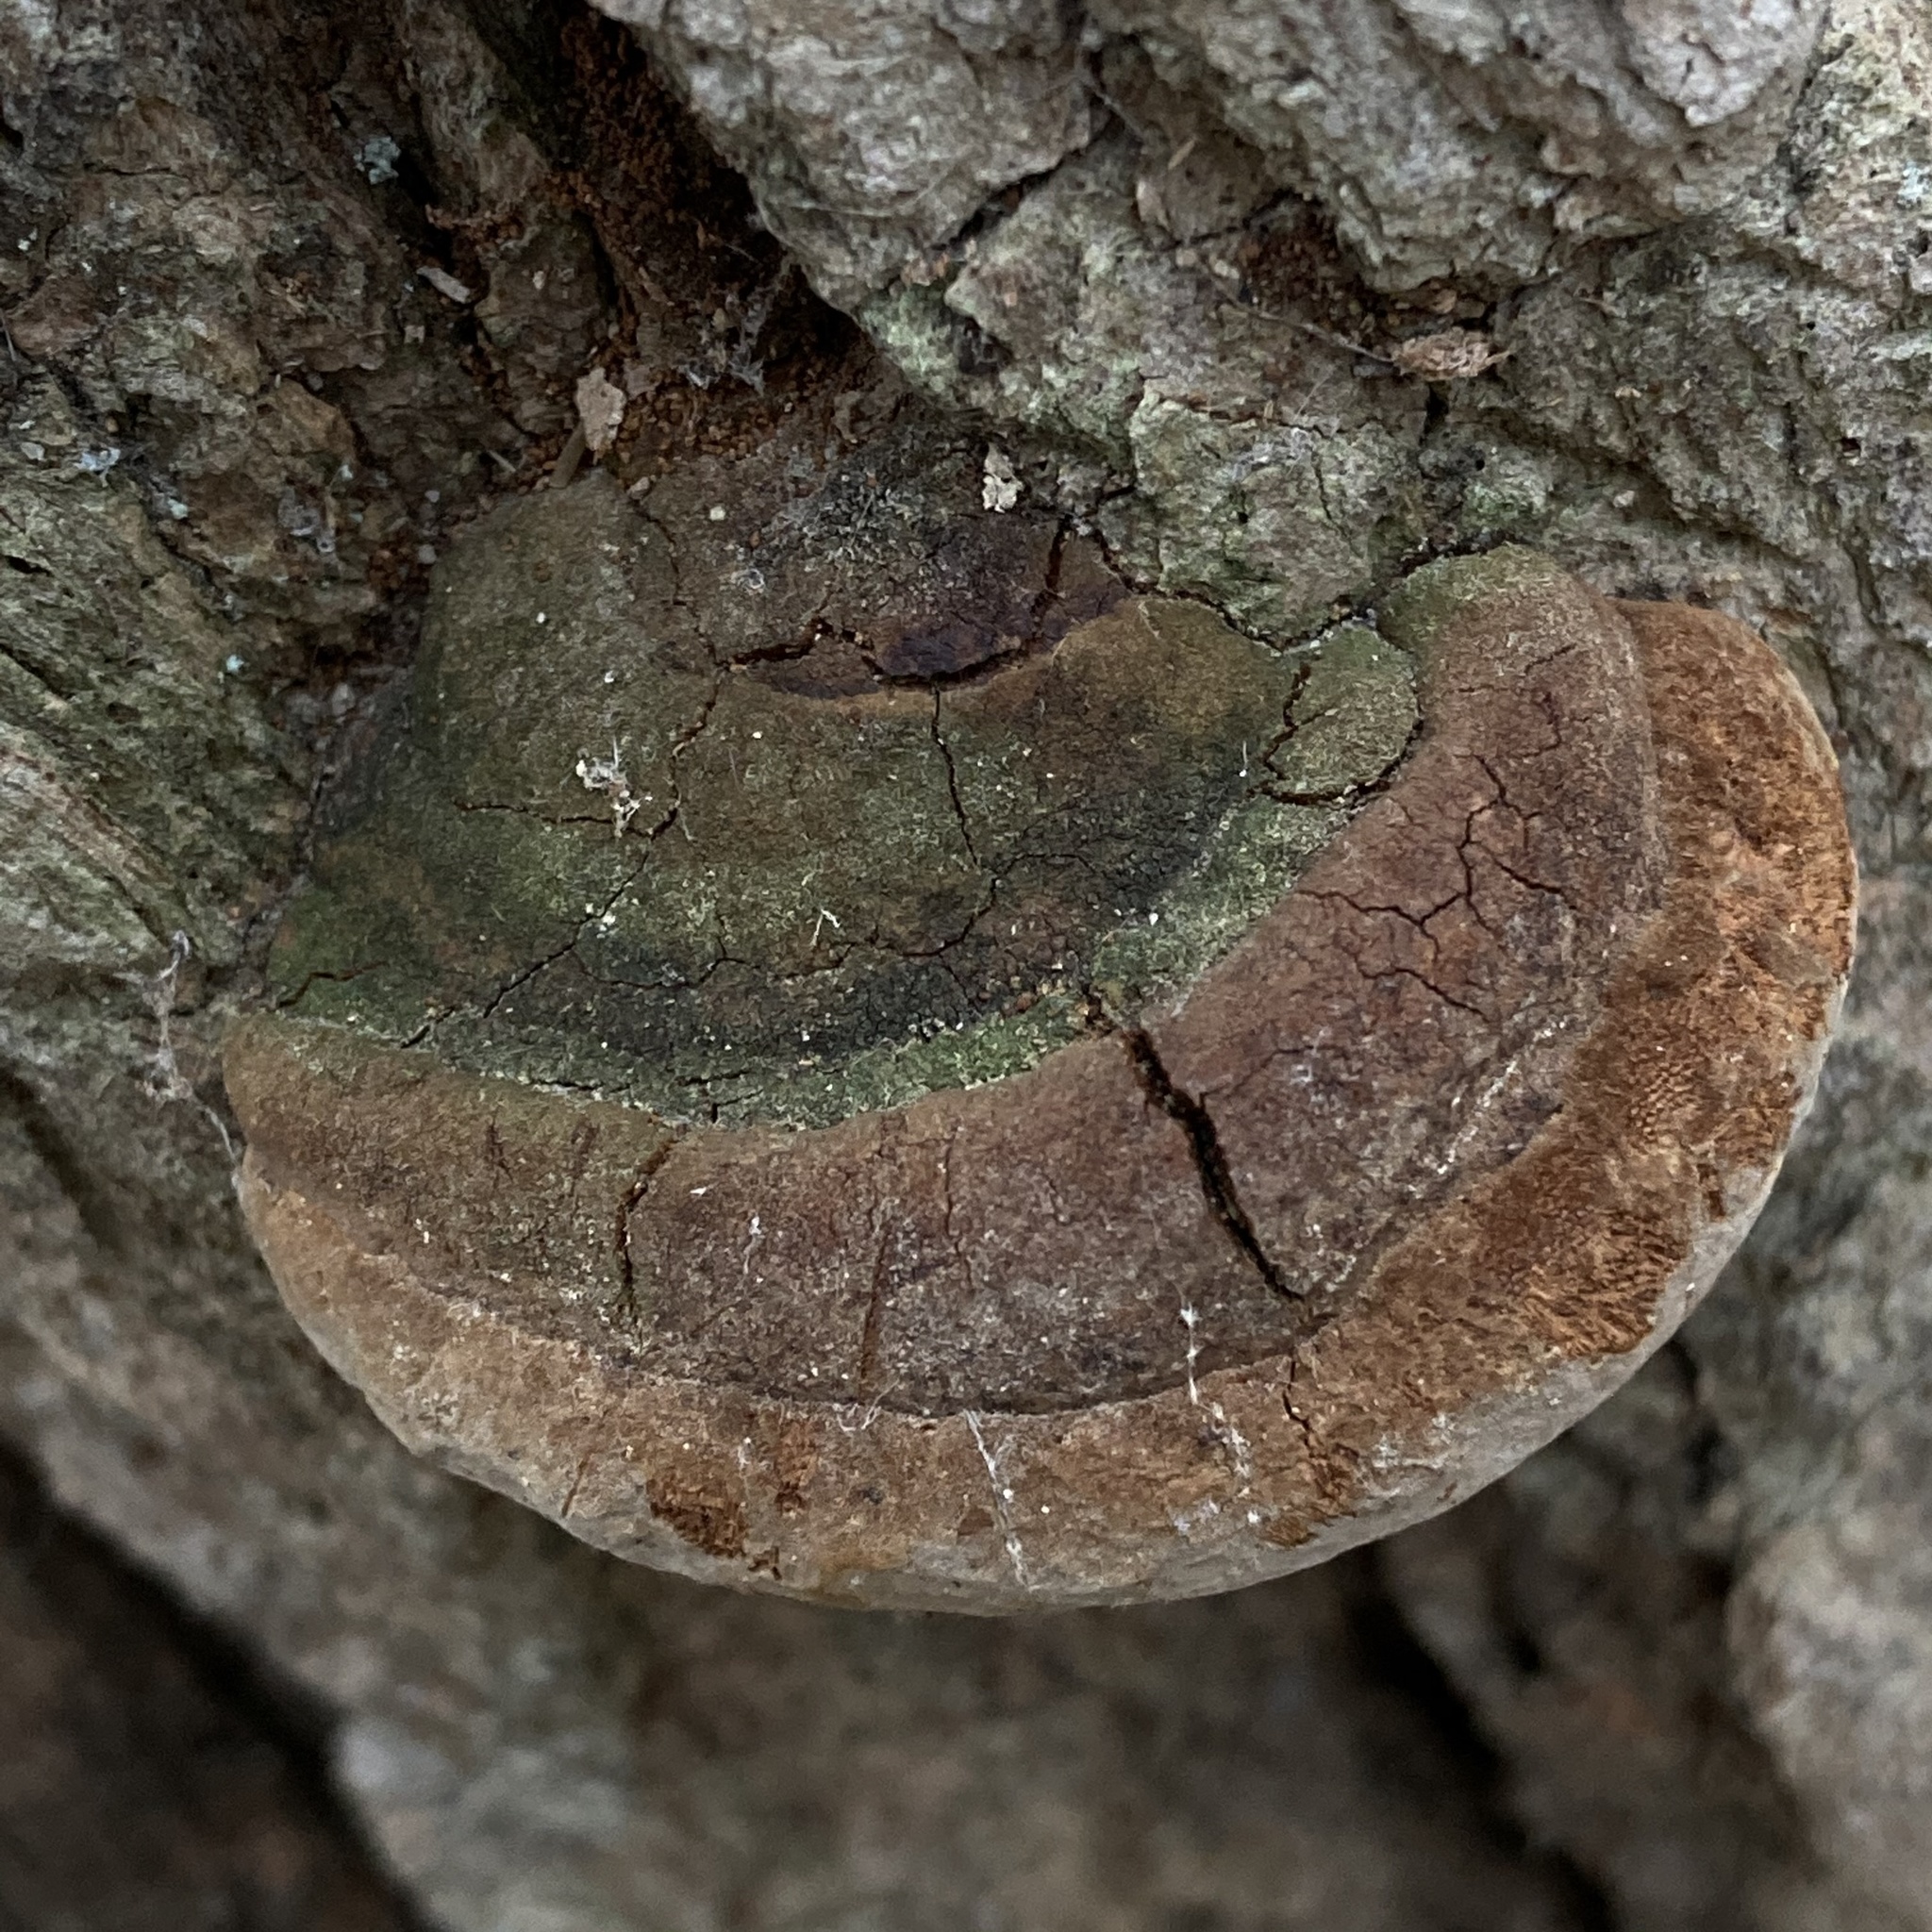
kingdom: Fungi
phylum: Basidiomycota
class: Agaricomycetes
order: Hymenochaetales
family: Hymenochaetaceae
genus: Fomitiporia
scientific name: Fomitiporia robusta
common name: Robust bracket
